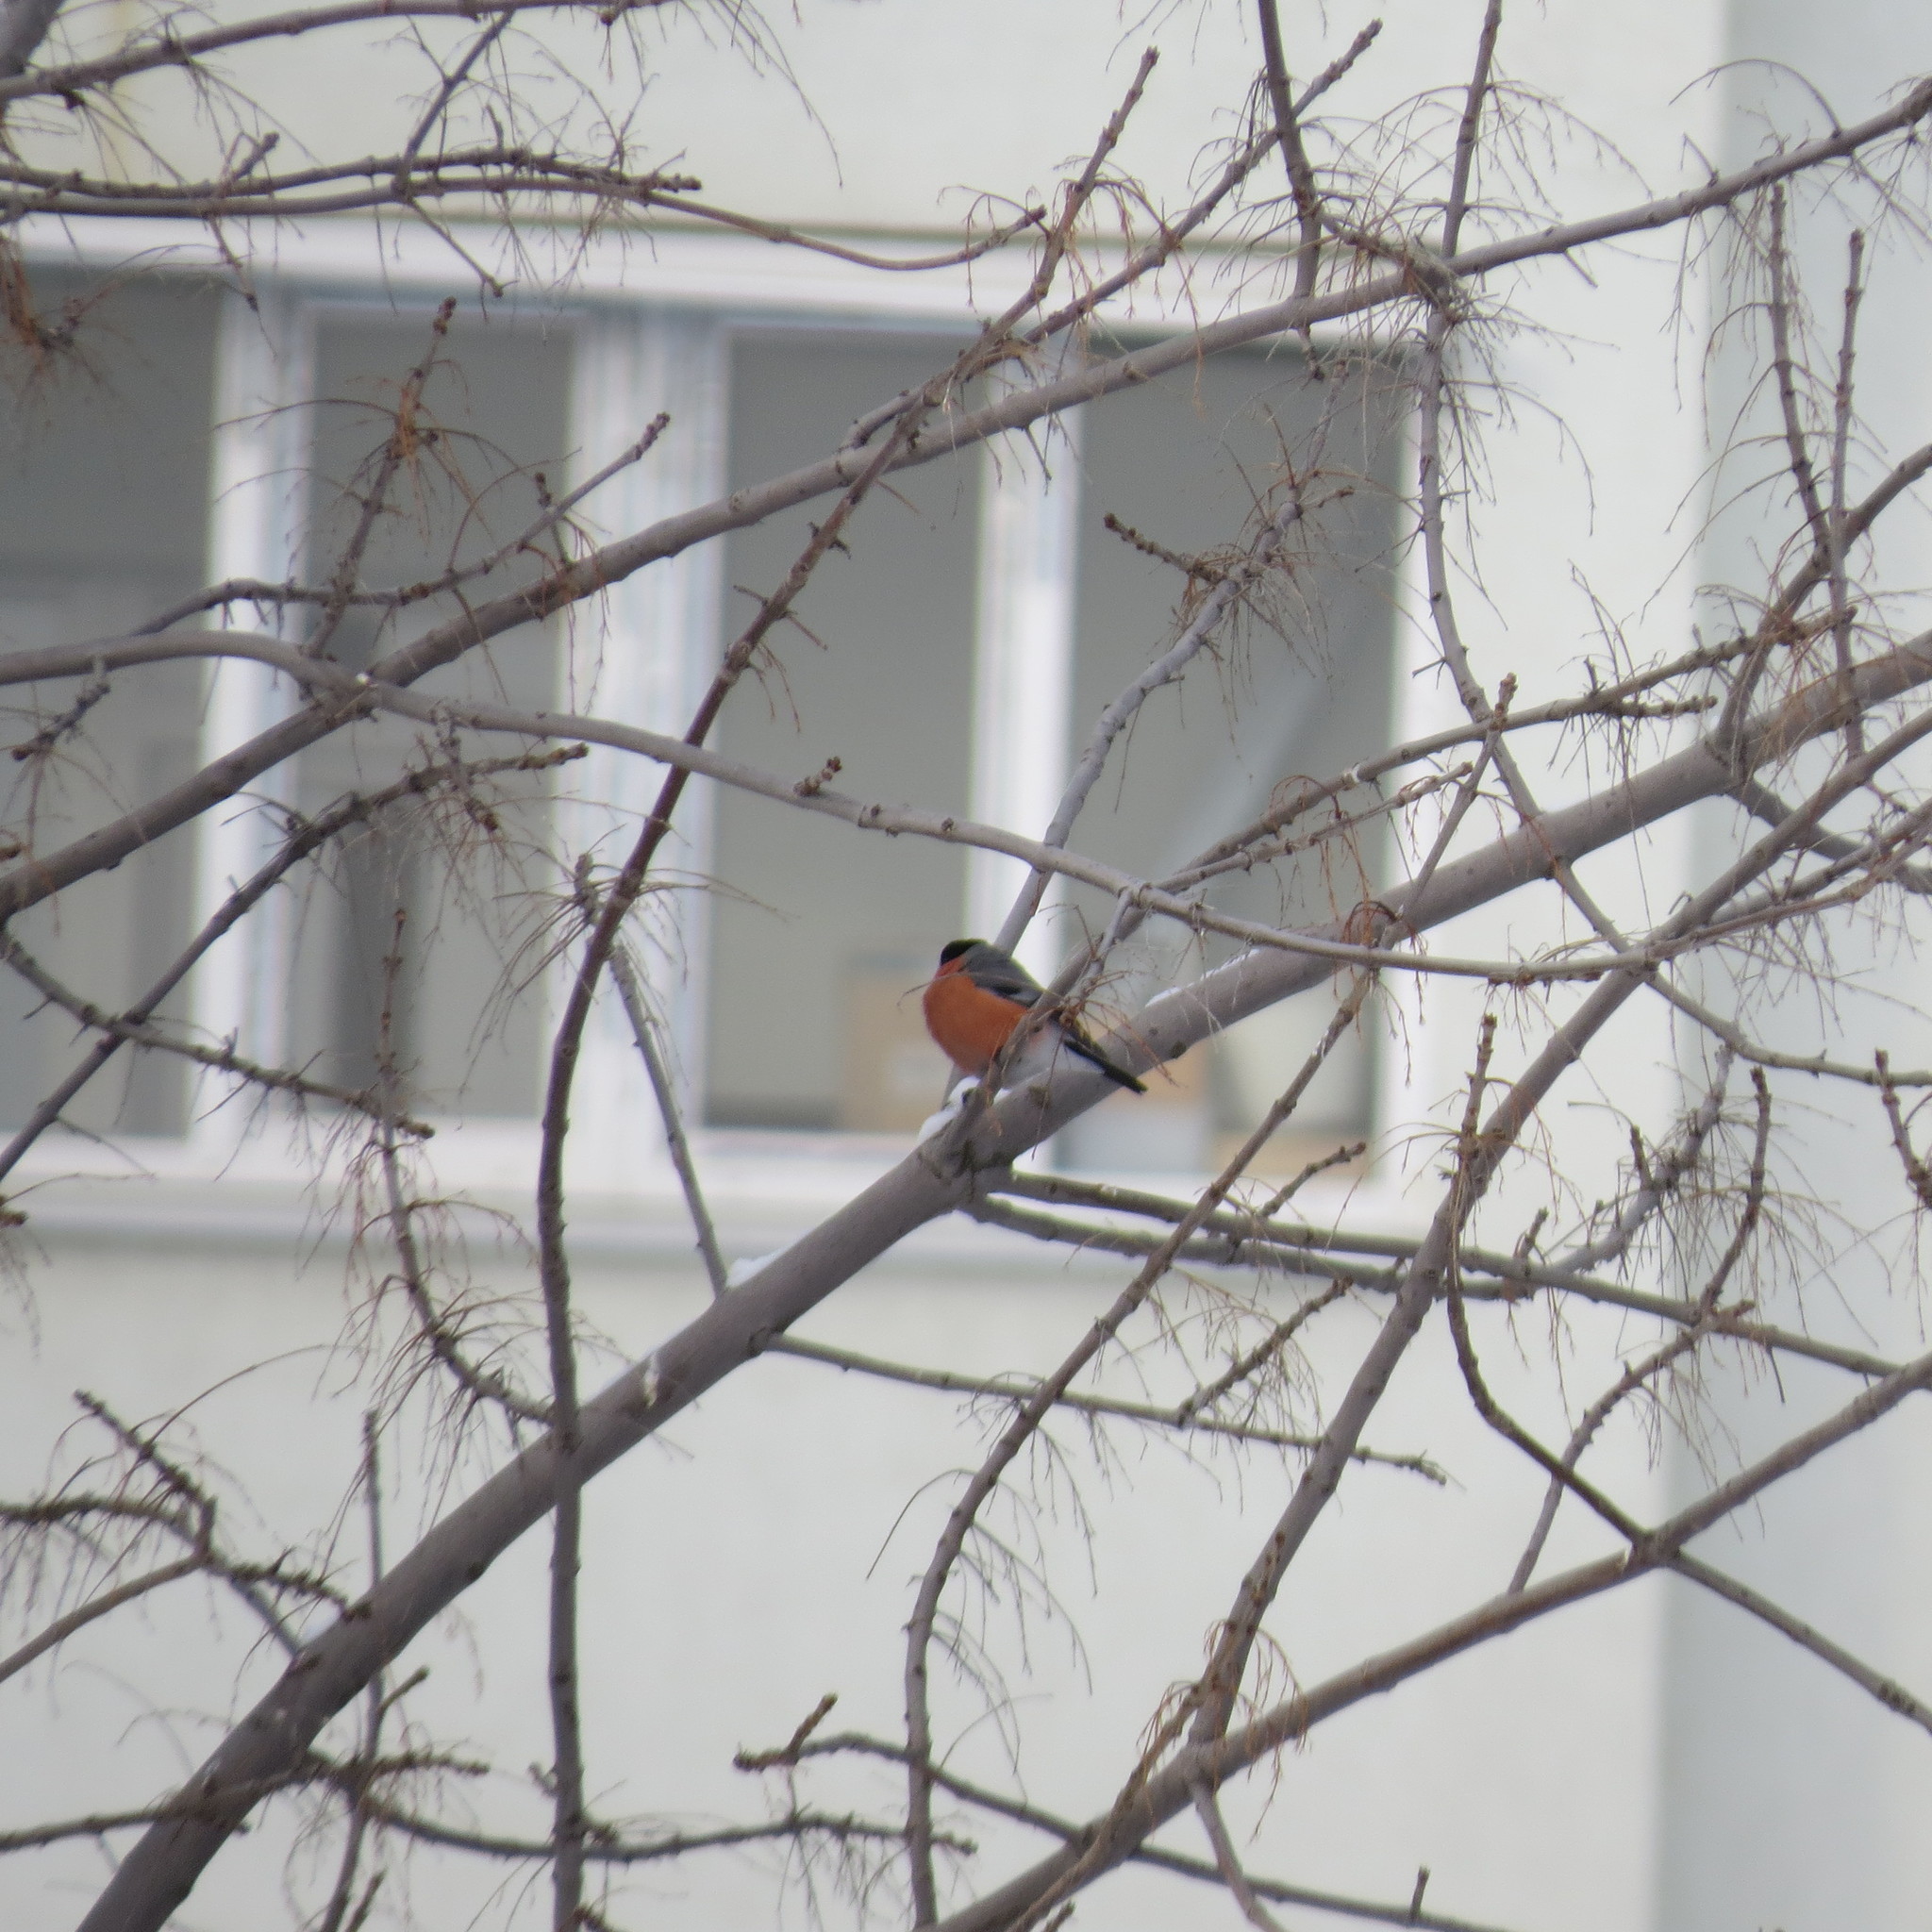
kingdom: Animalia
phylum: Chordata
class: Aves
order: Passeriformes
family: Fringillidae
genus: Pyrrhula
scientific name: Pyrrhula pyrrhula
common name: Eurasian bullfinch
